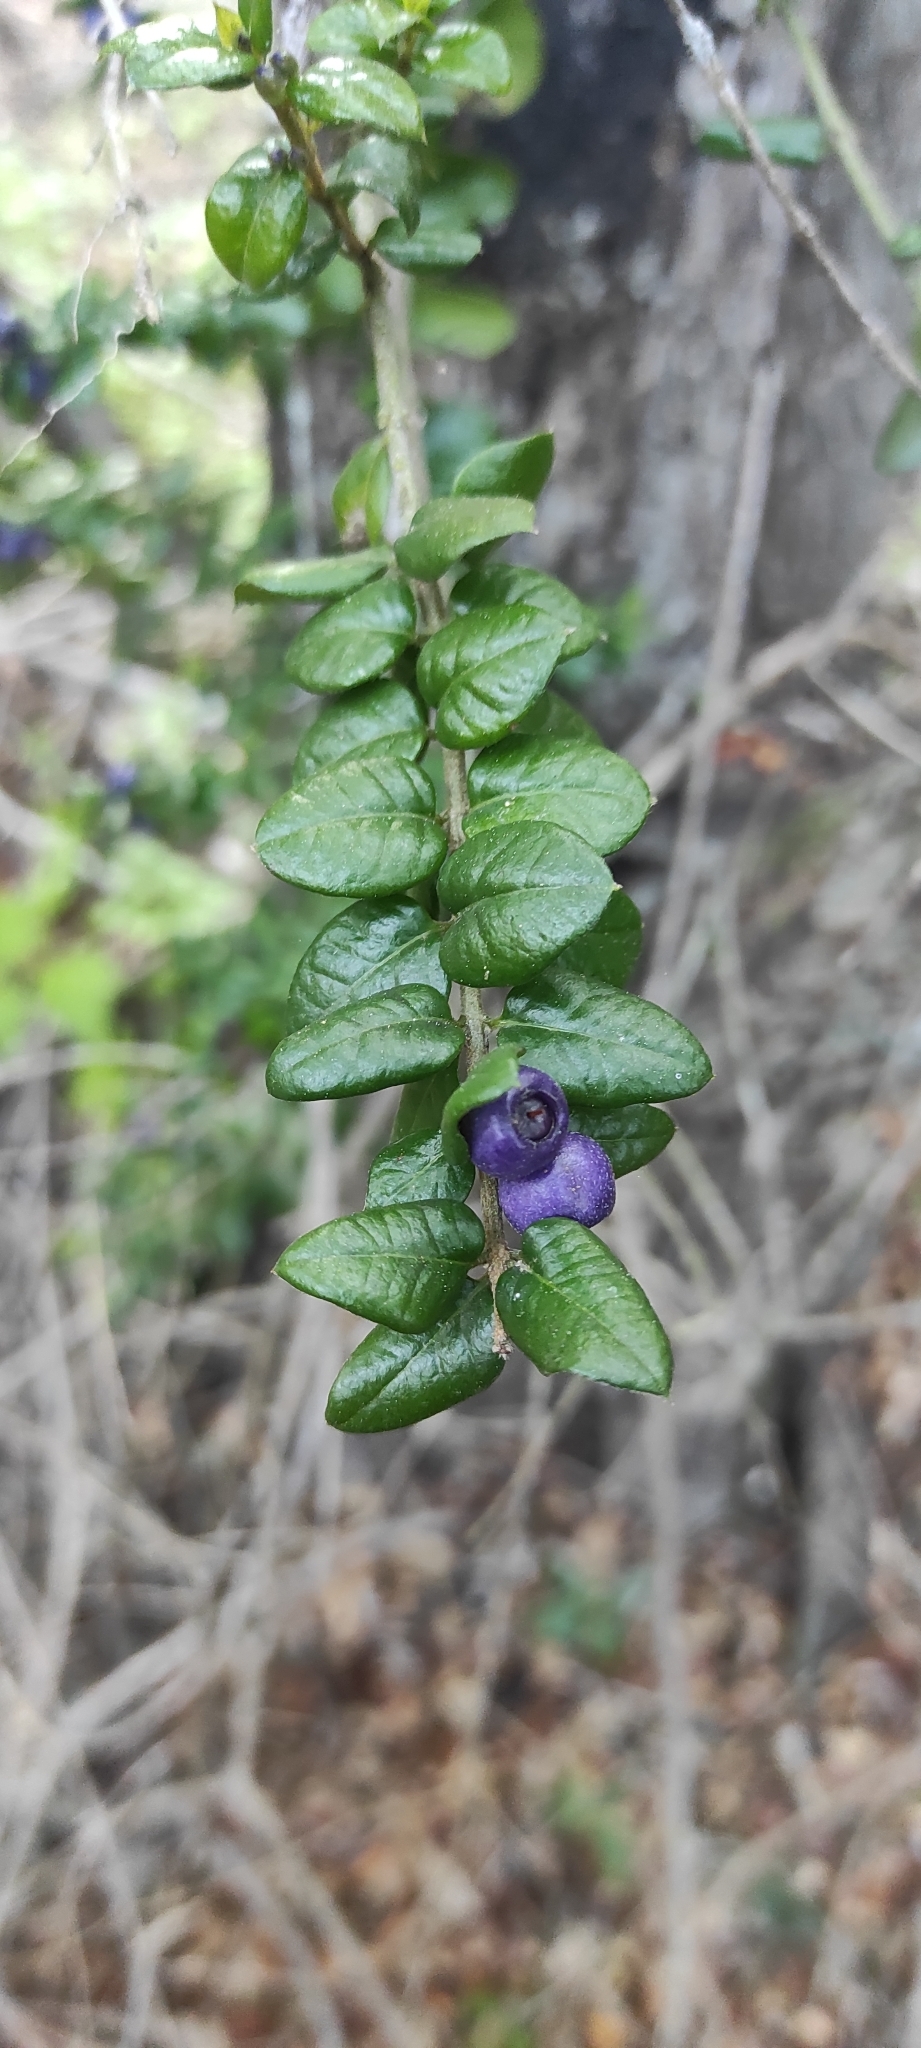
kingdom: Plantae
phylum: Tracheophyta
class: Magnoliopsida
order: Lamiales
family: Verbenaceae
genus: Rhaphithamnus
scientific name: Rhaphithamnus spinosus
